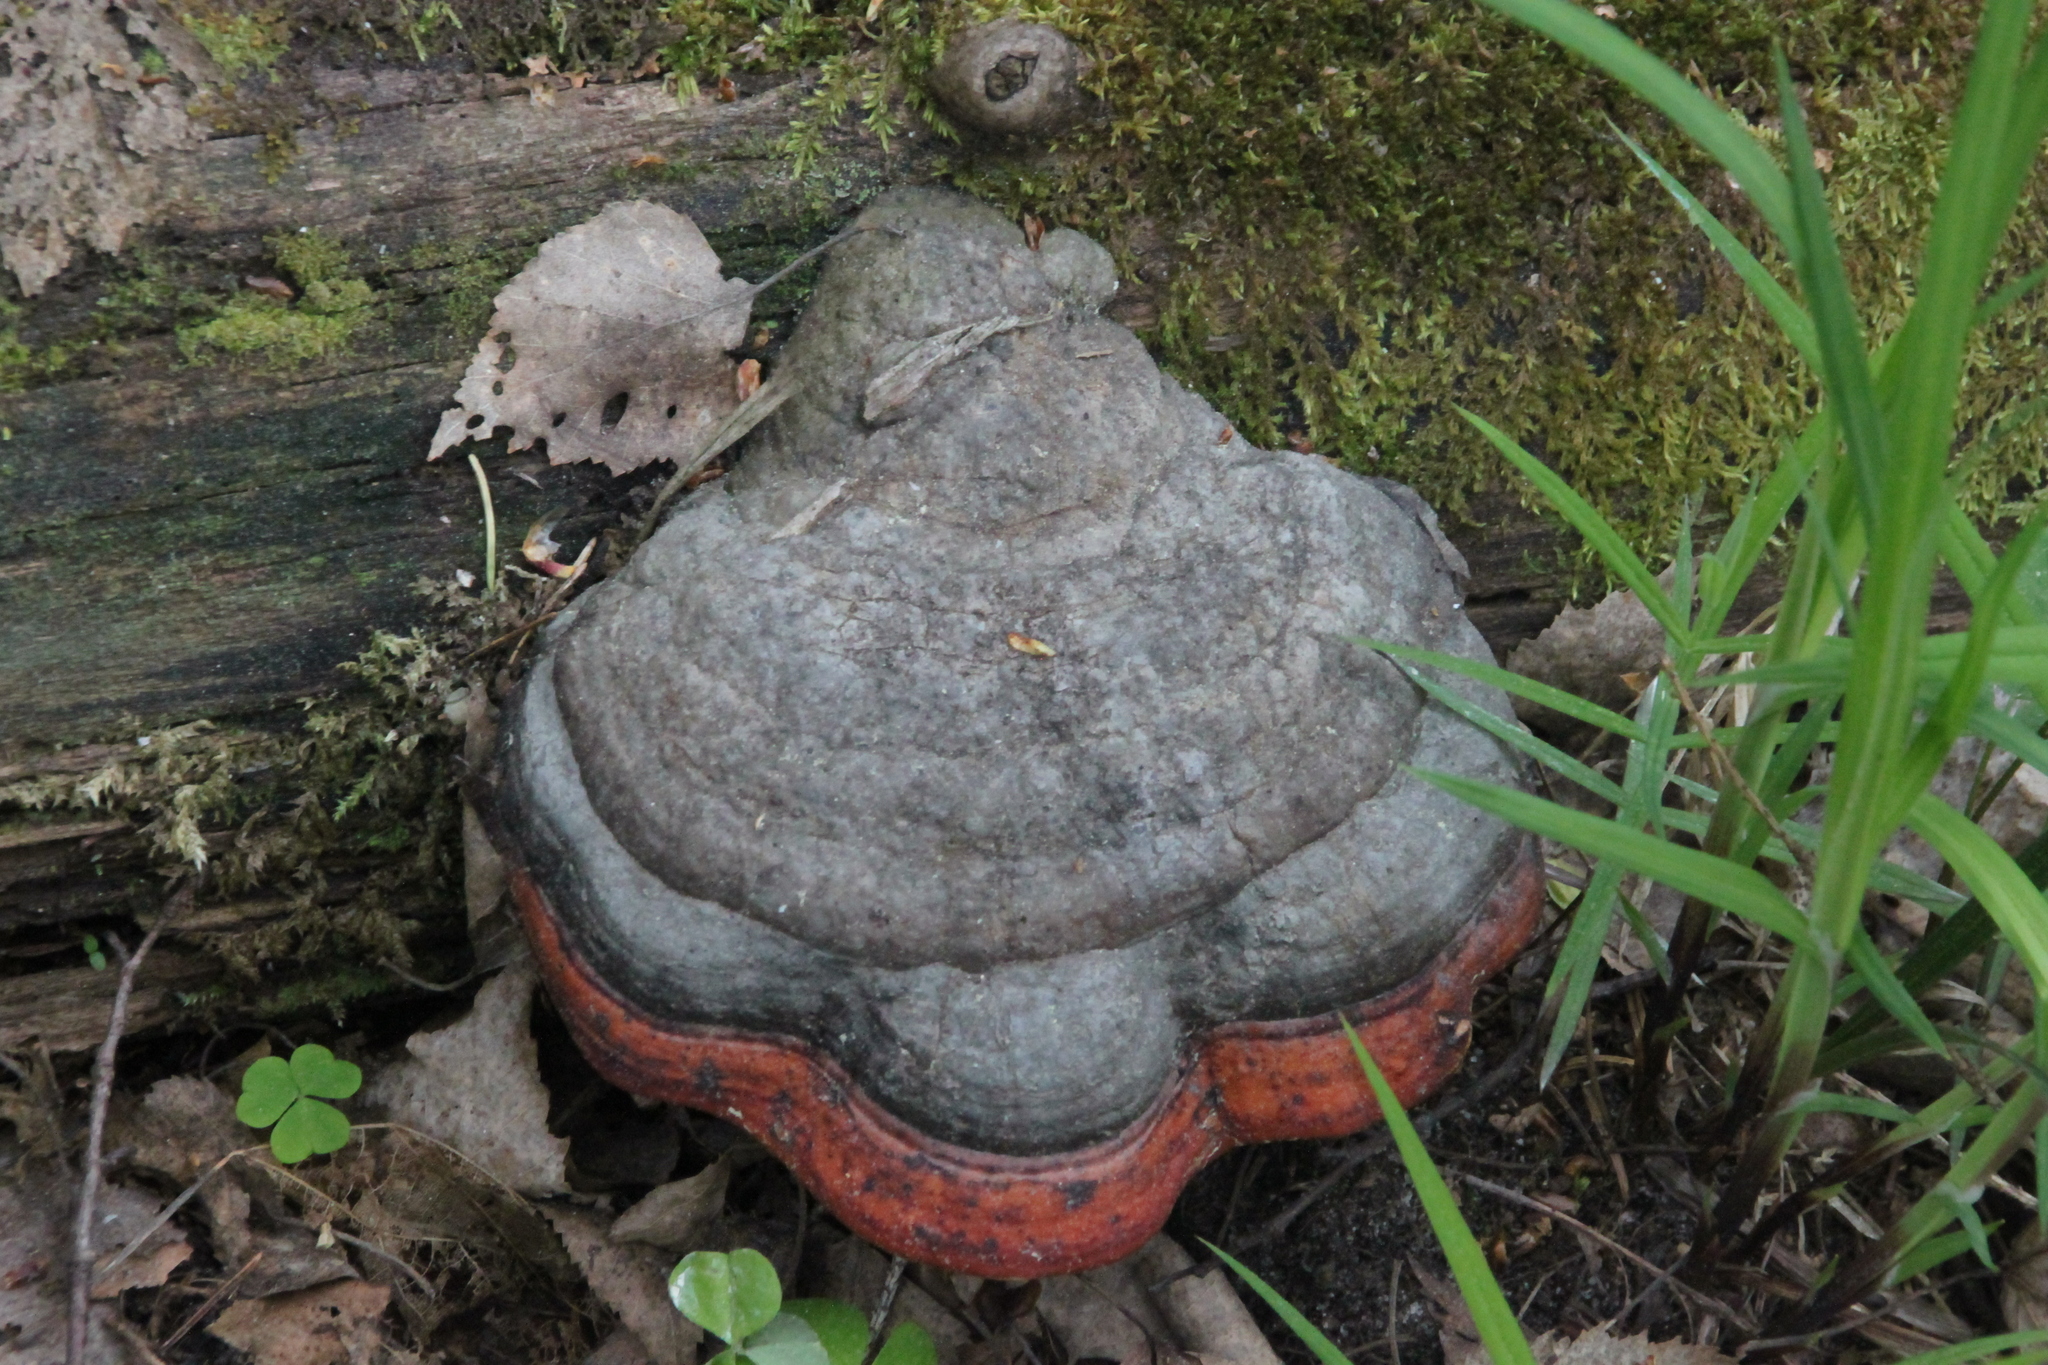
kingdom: Fungi
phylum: Basidiomycota
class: Agaricomycetes
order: Polyporales
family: Fomitopsidaceae
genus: Fomitopsis
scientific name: Fomitopsis pinicola
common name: Red-belted bracket
